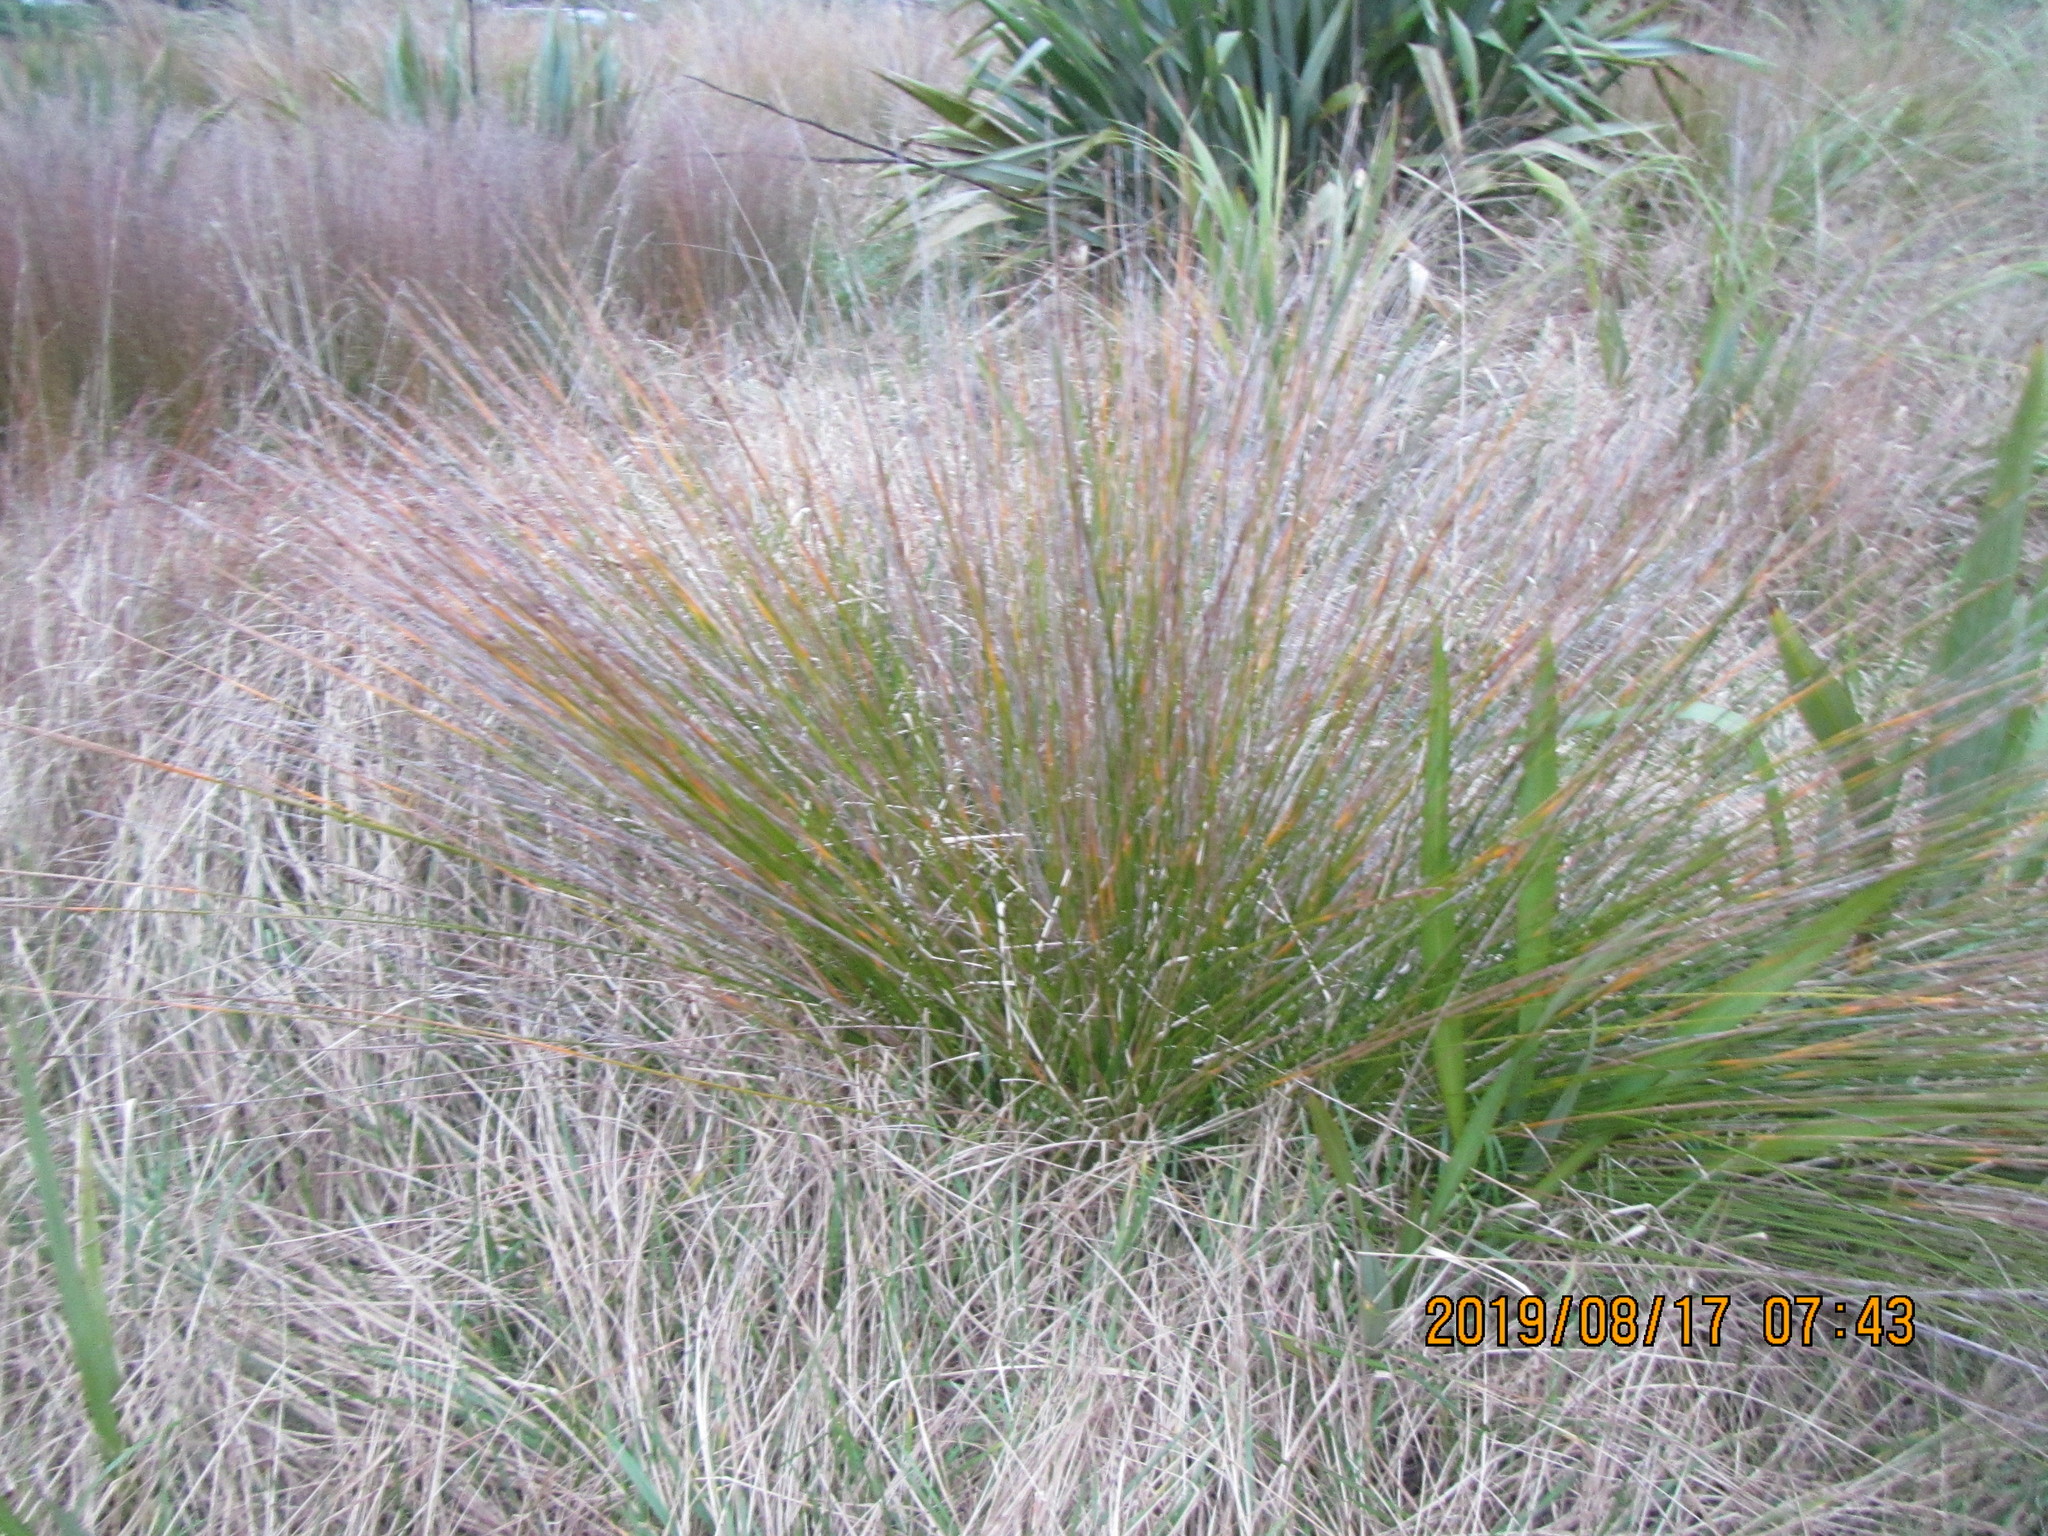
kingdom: Plantae
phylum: Tracheophyta
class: Liliopsida
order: Poales
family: Cyperaceae
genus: Ficinia
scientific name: Ficinia nodosa
